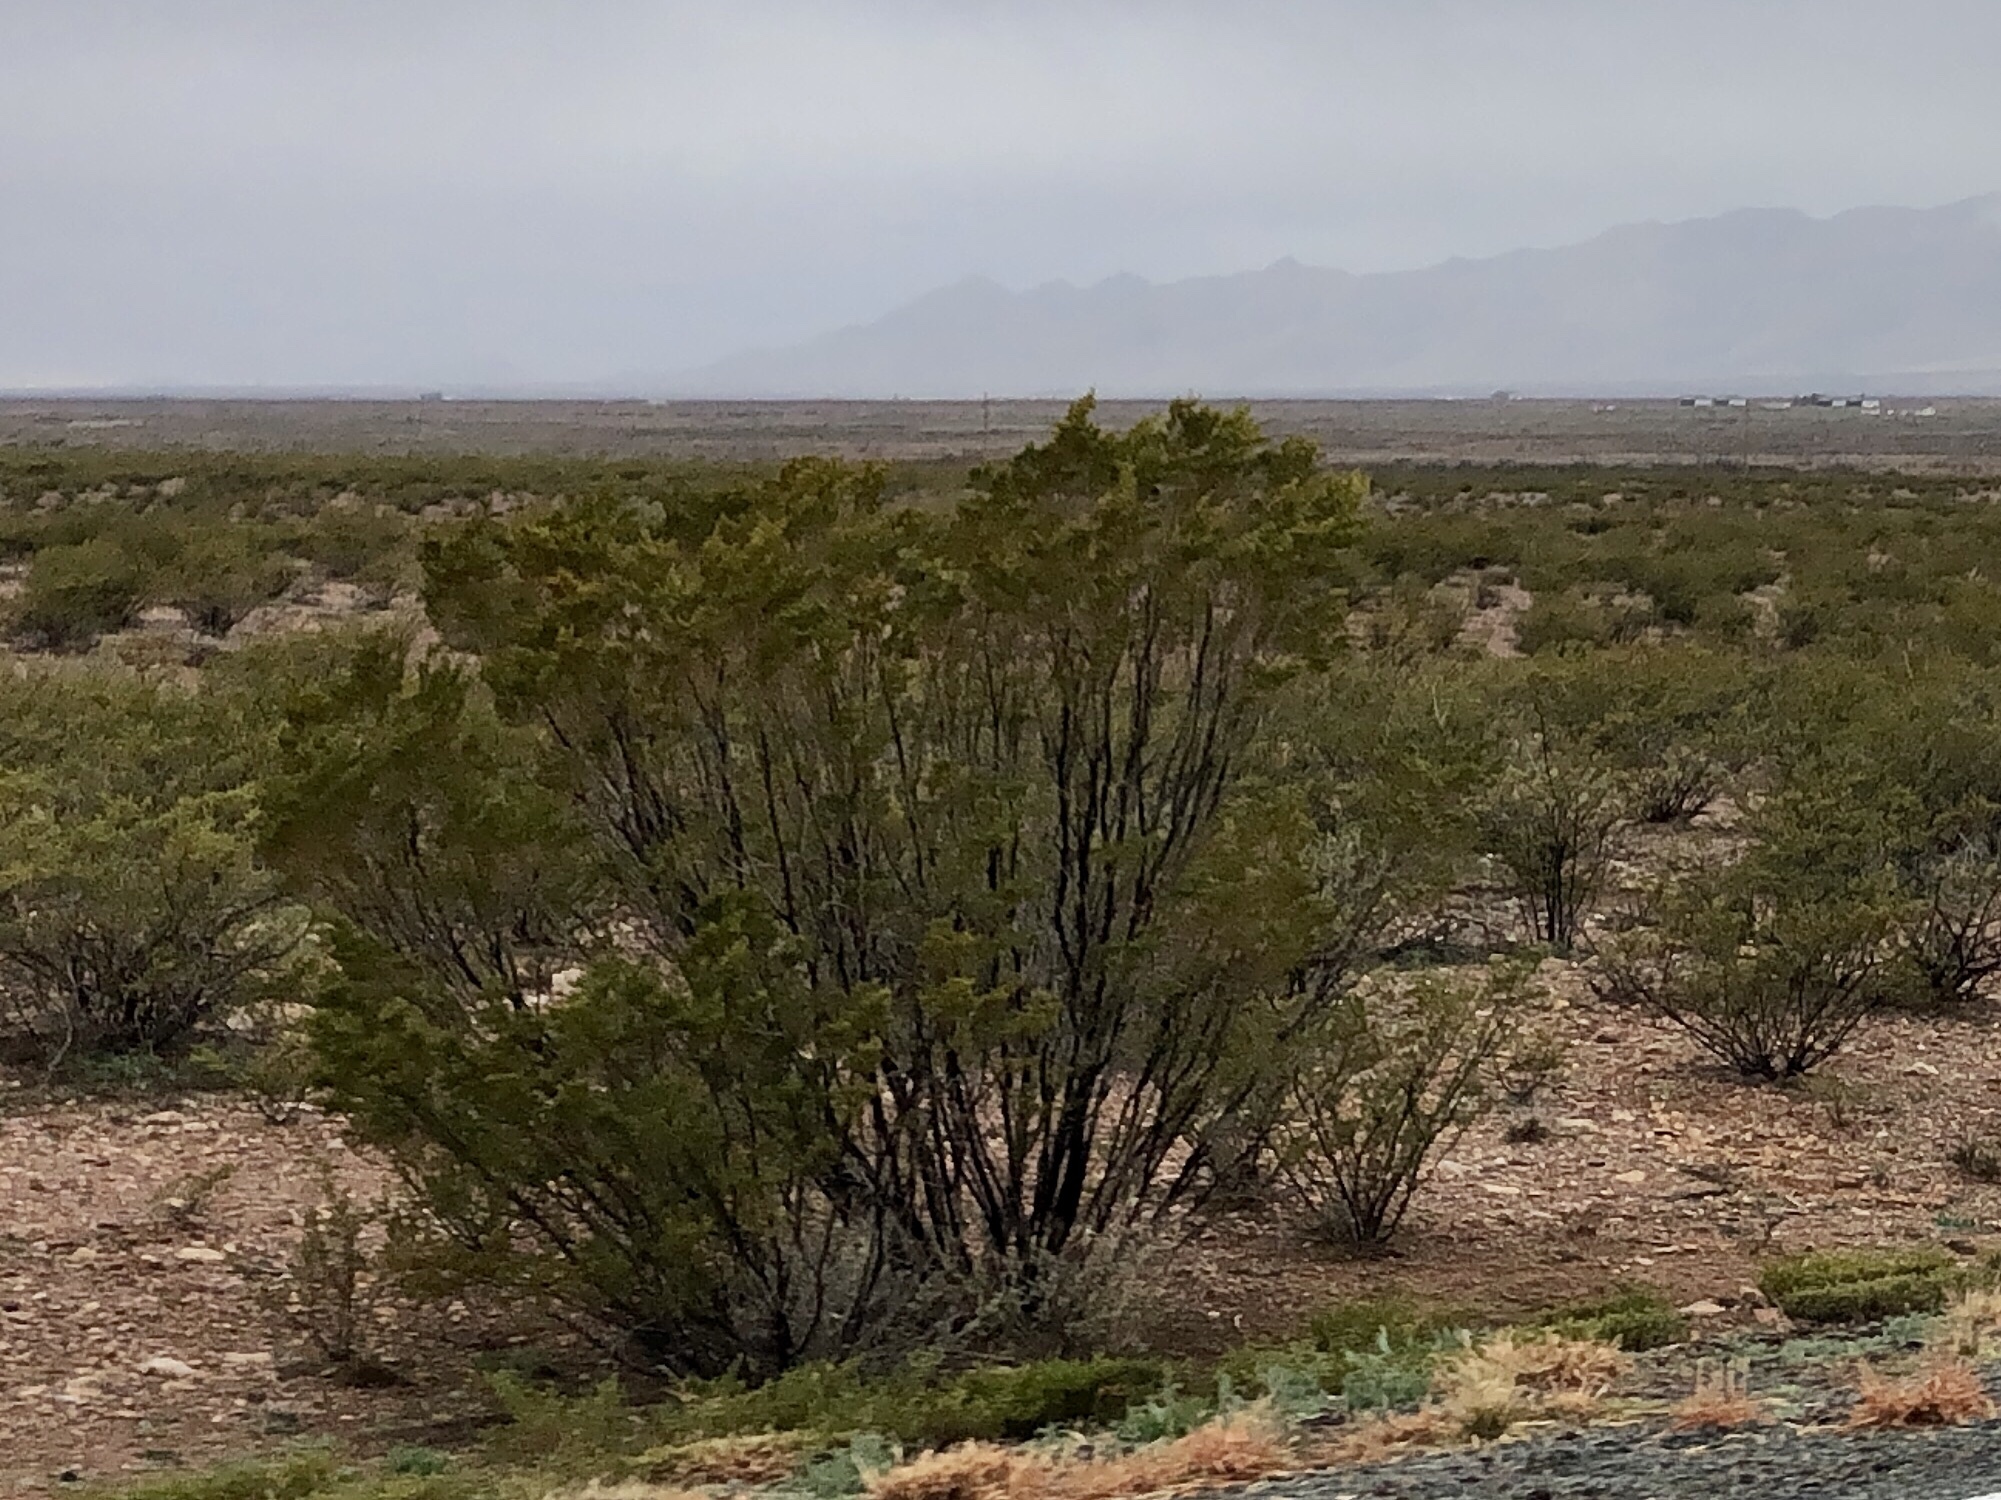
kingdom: Plantae
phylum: Tracheophyta
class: Magnoliopsida
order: Zygophyllales
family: Zygophyllaceae
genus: Larrea
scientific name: Larrea tridentata
